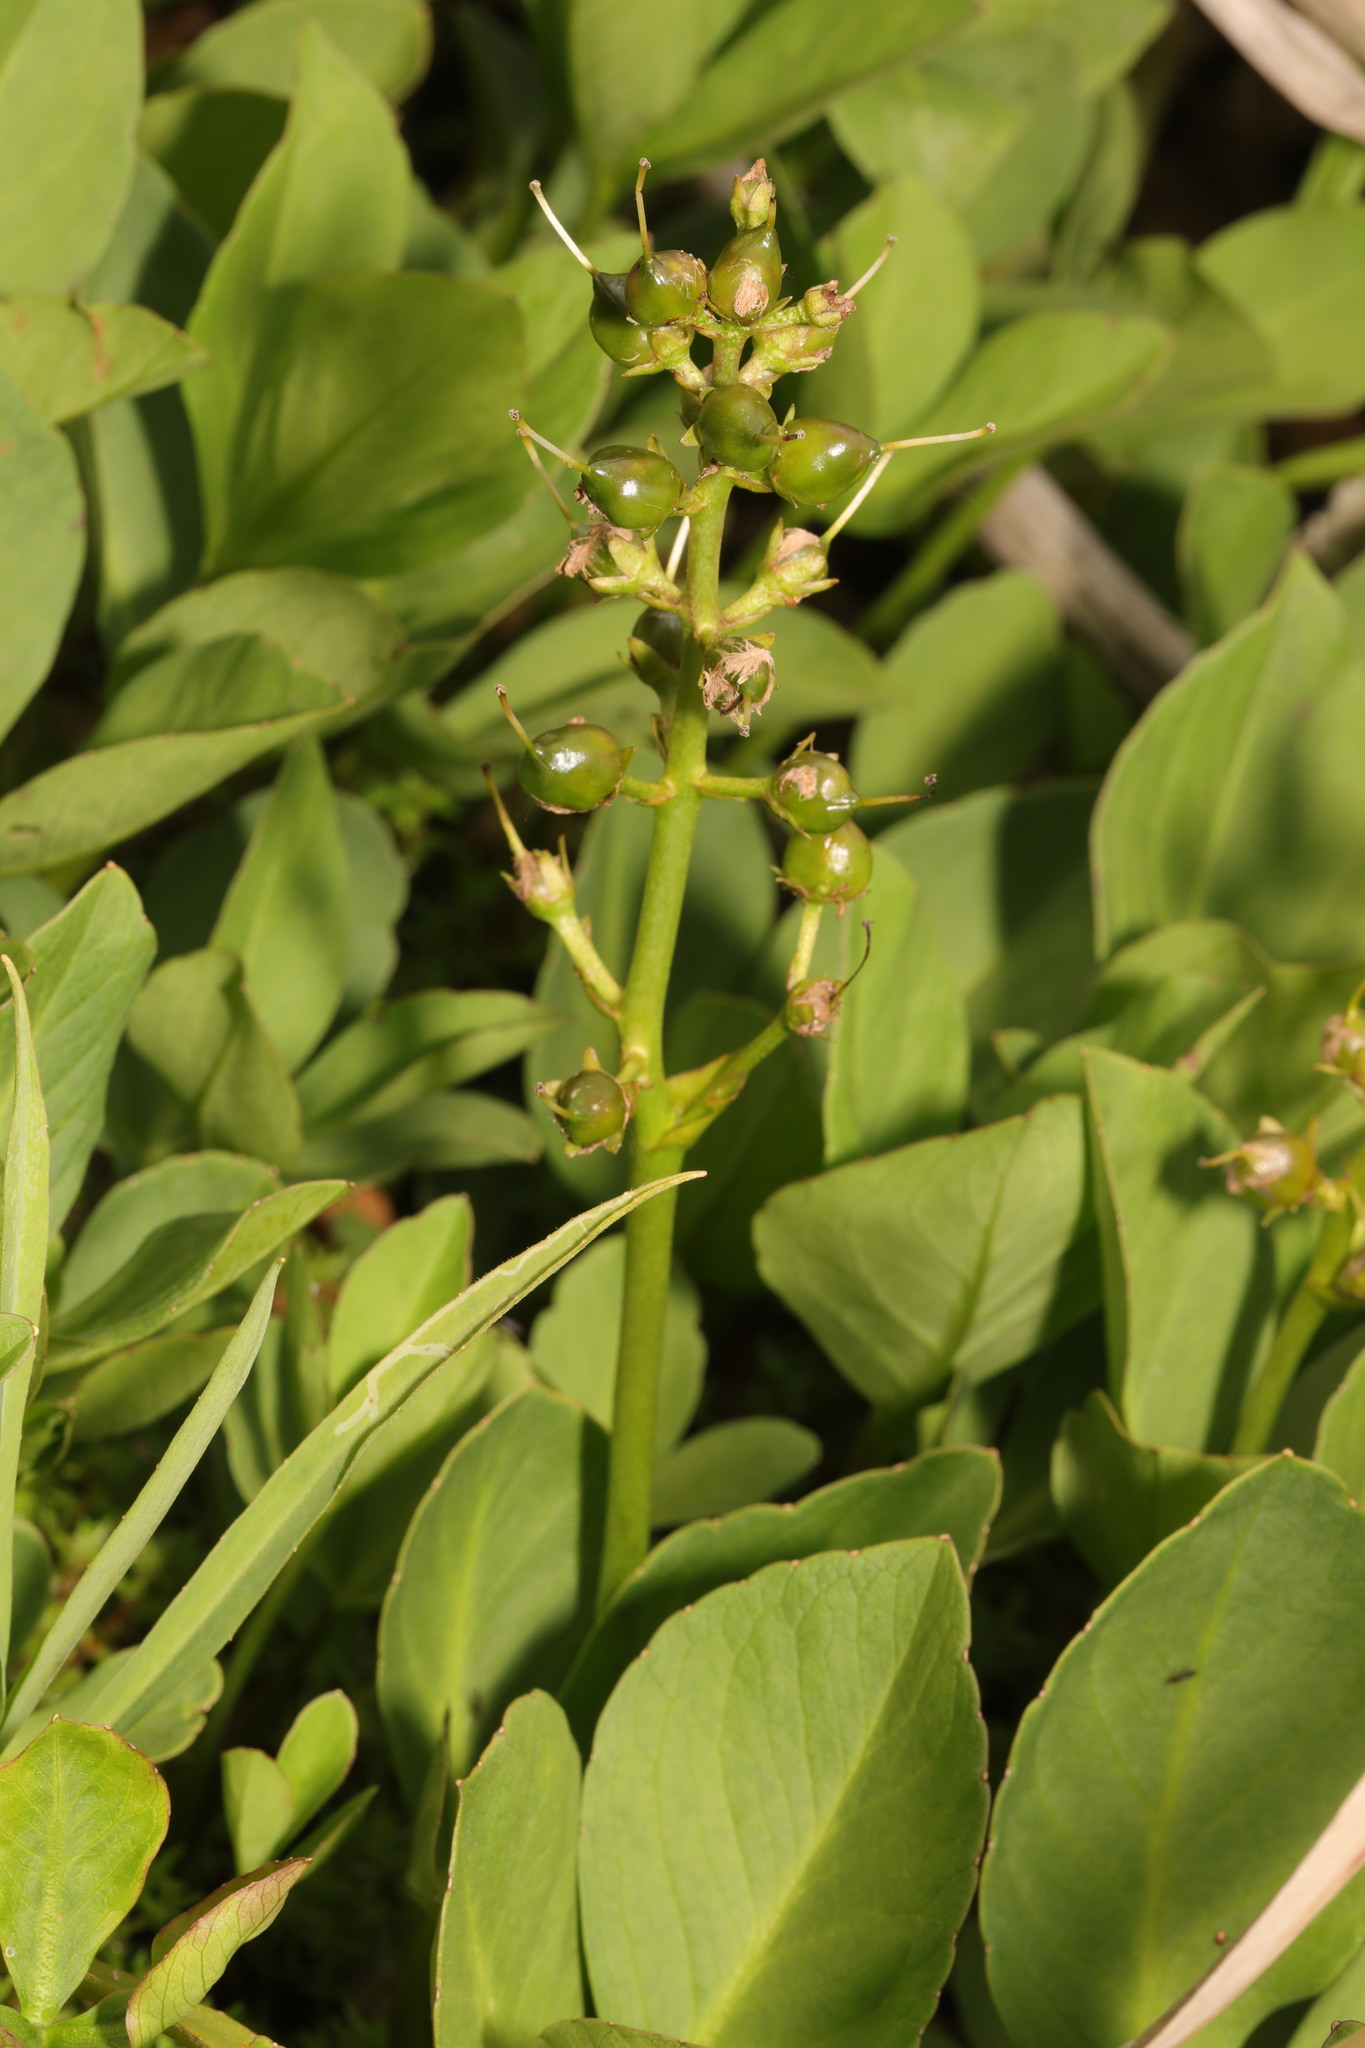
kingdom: Plantae
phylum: Tracheophyta
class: Magnoliopsida
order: Asterales
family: Menyanthaceae
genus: Menyanthes
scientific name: Menyanthes trifoliata
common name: Bogbean
